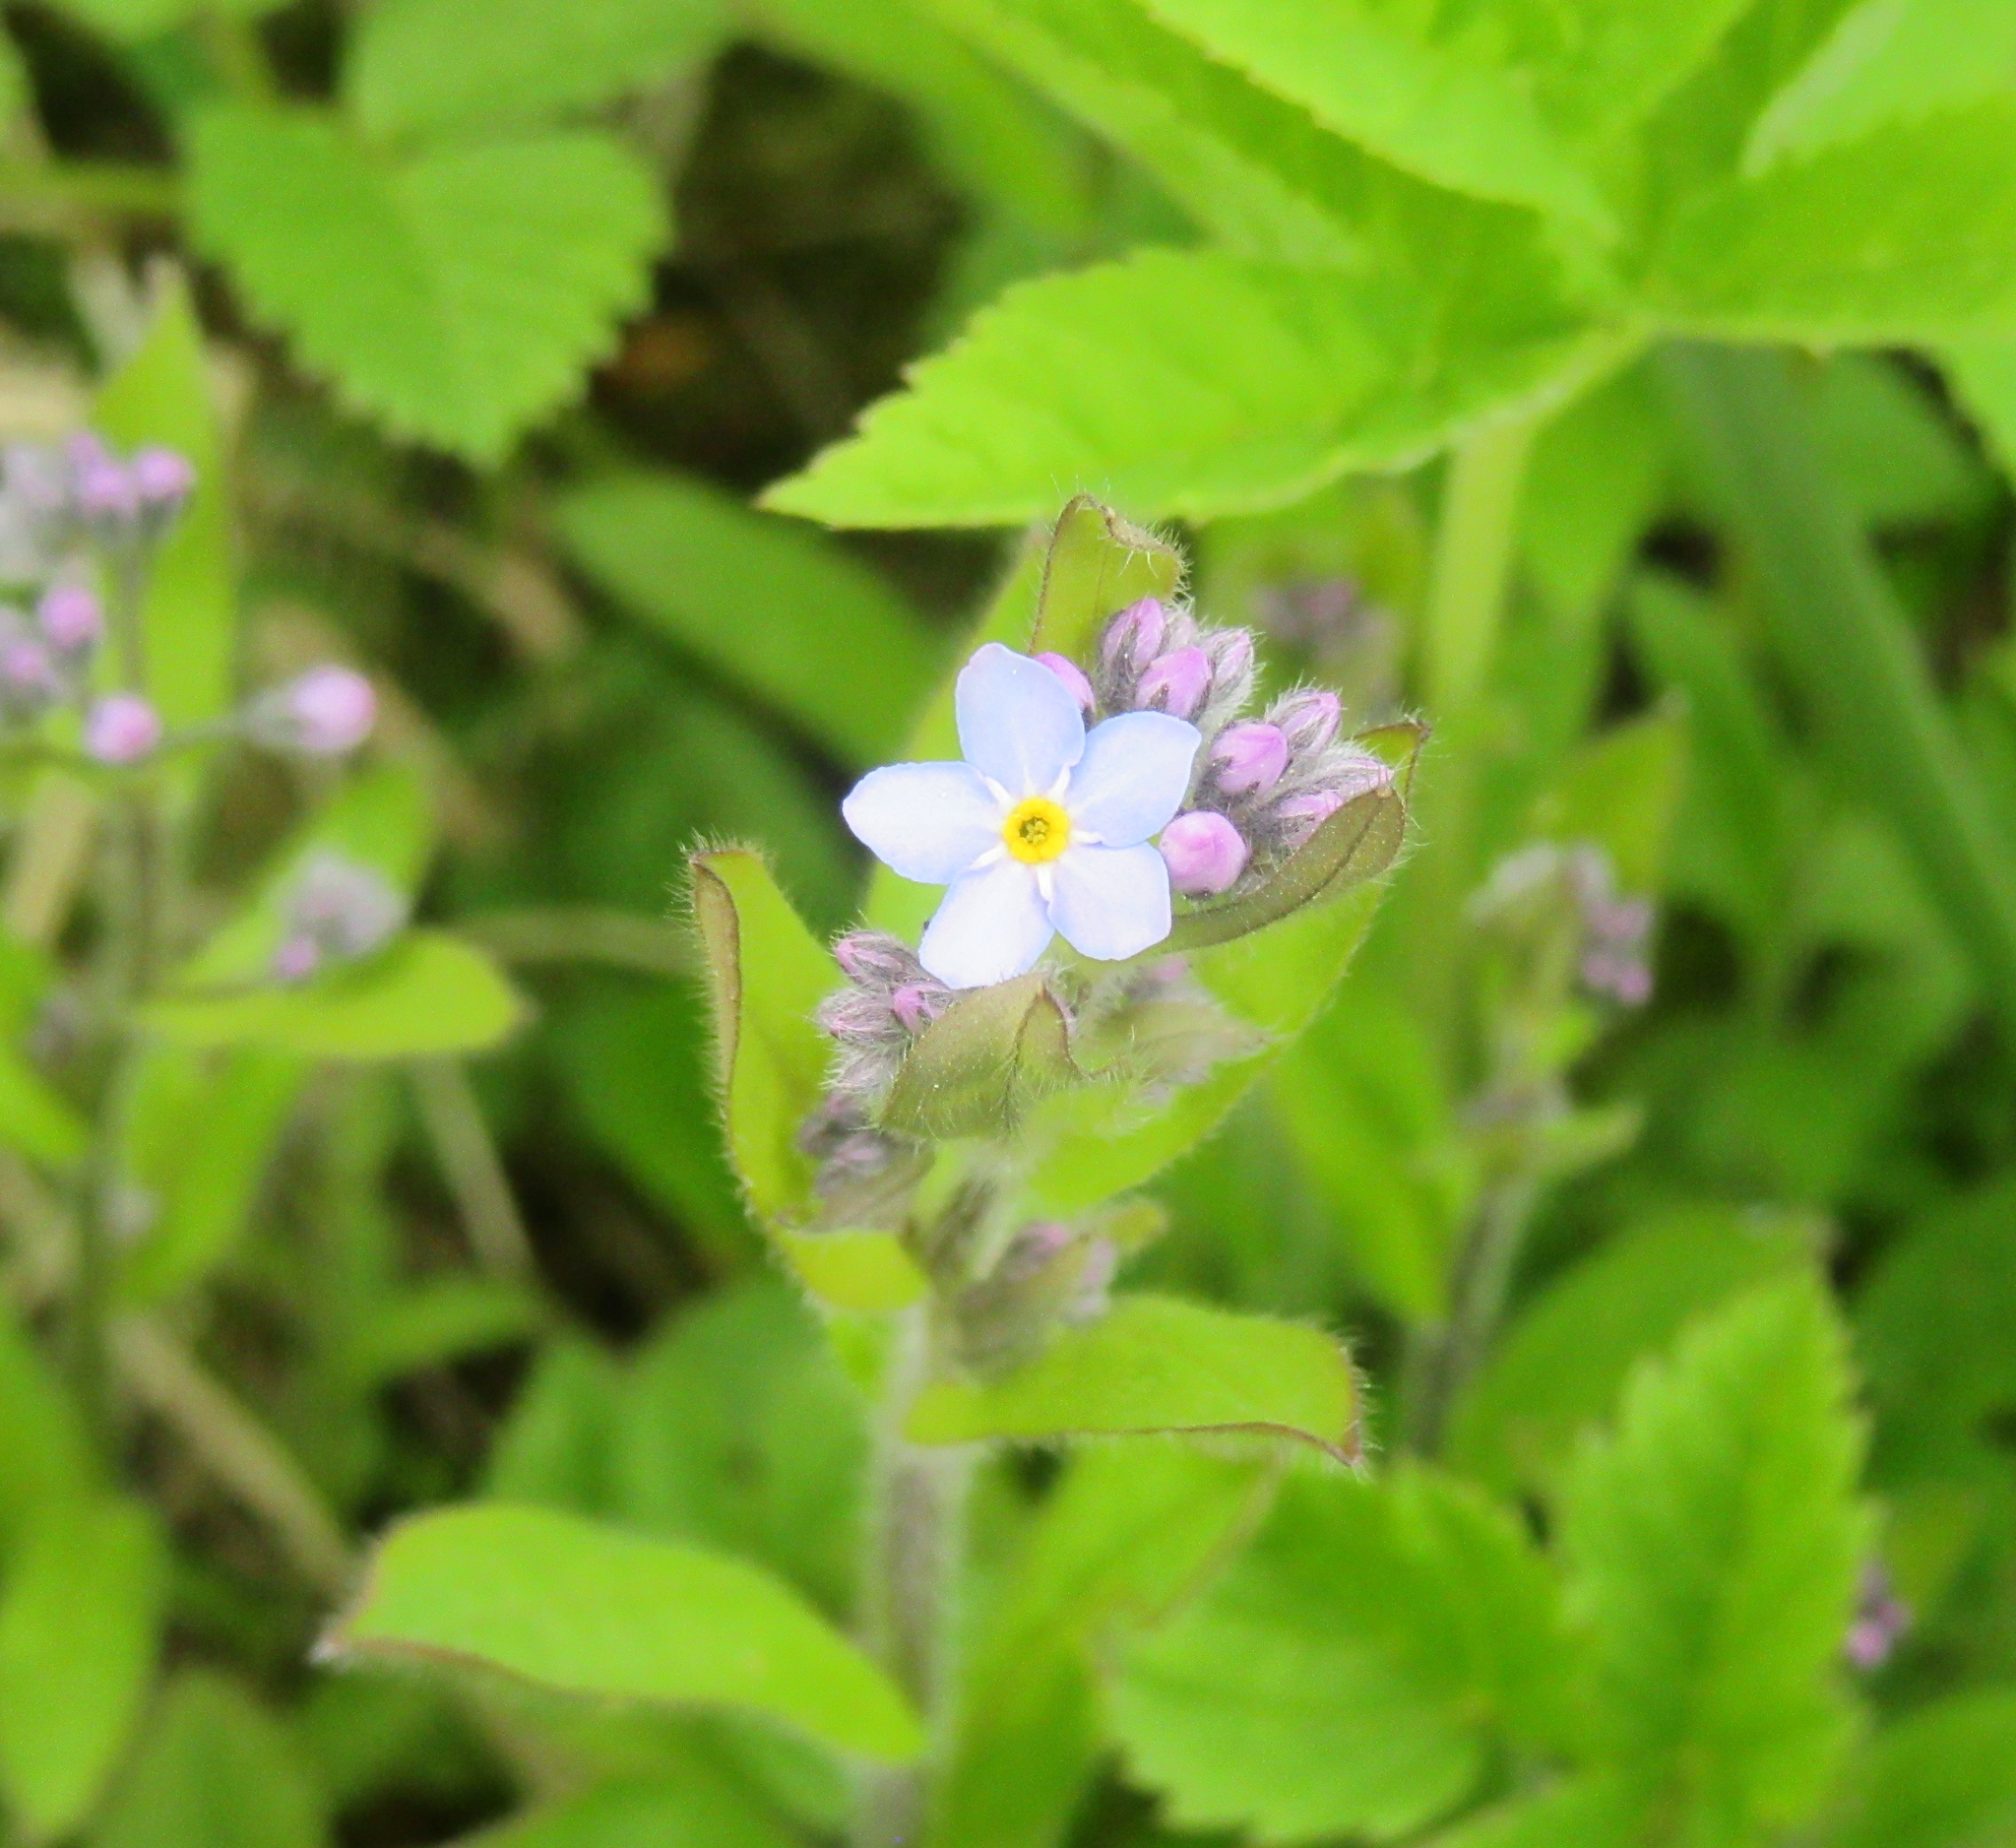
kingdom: Plantae
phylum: Tracheophyta
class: Magnoliopsida
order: Boraginales
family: Boraginaceae
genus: Myosotis
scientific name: Myosotis sylvatica
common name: Wood forget-me-not
